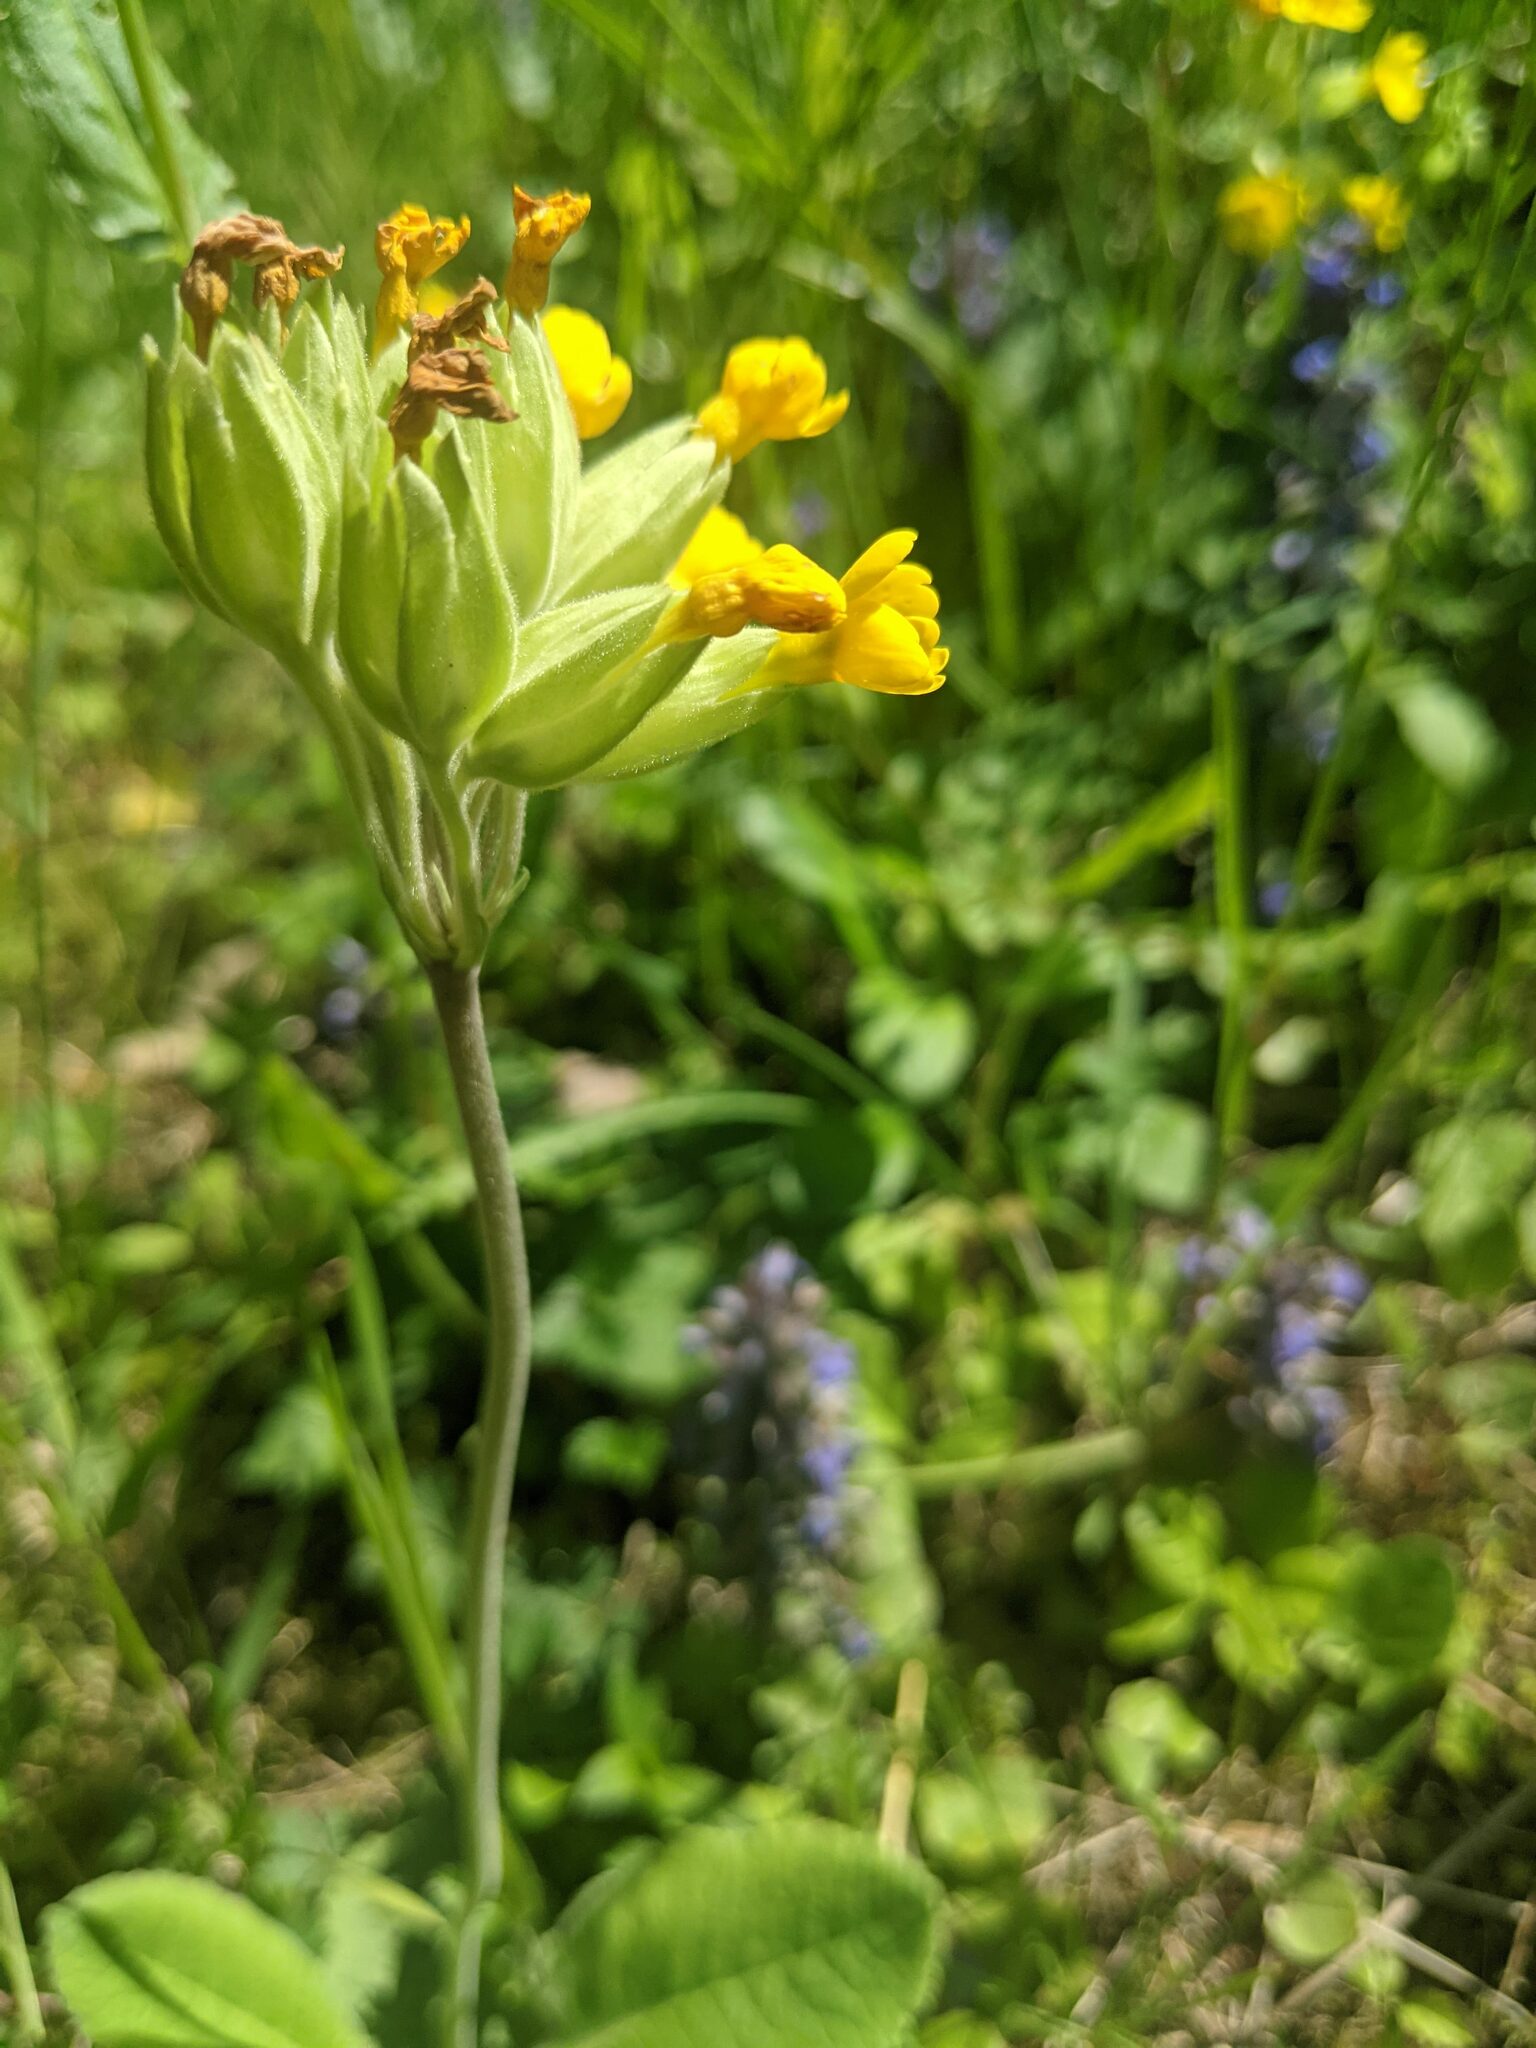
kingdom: Plantae
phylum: Tracheophyta
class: Magnoliopsida
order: Ericales
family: Primulaceae
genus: Primula
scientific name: Primula veris
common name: Cowslip
